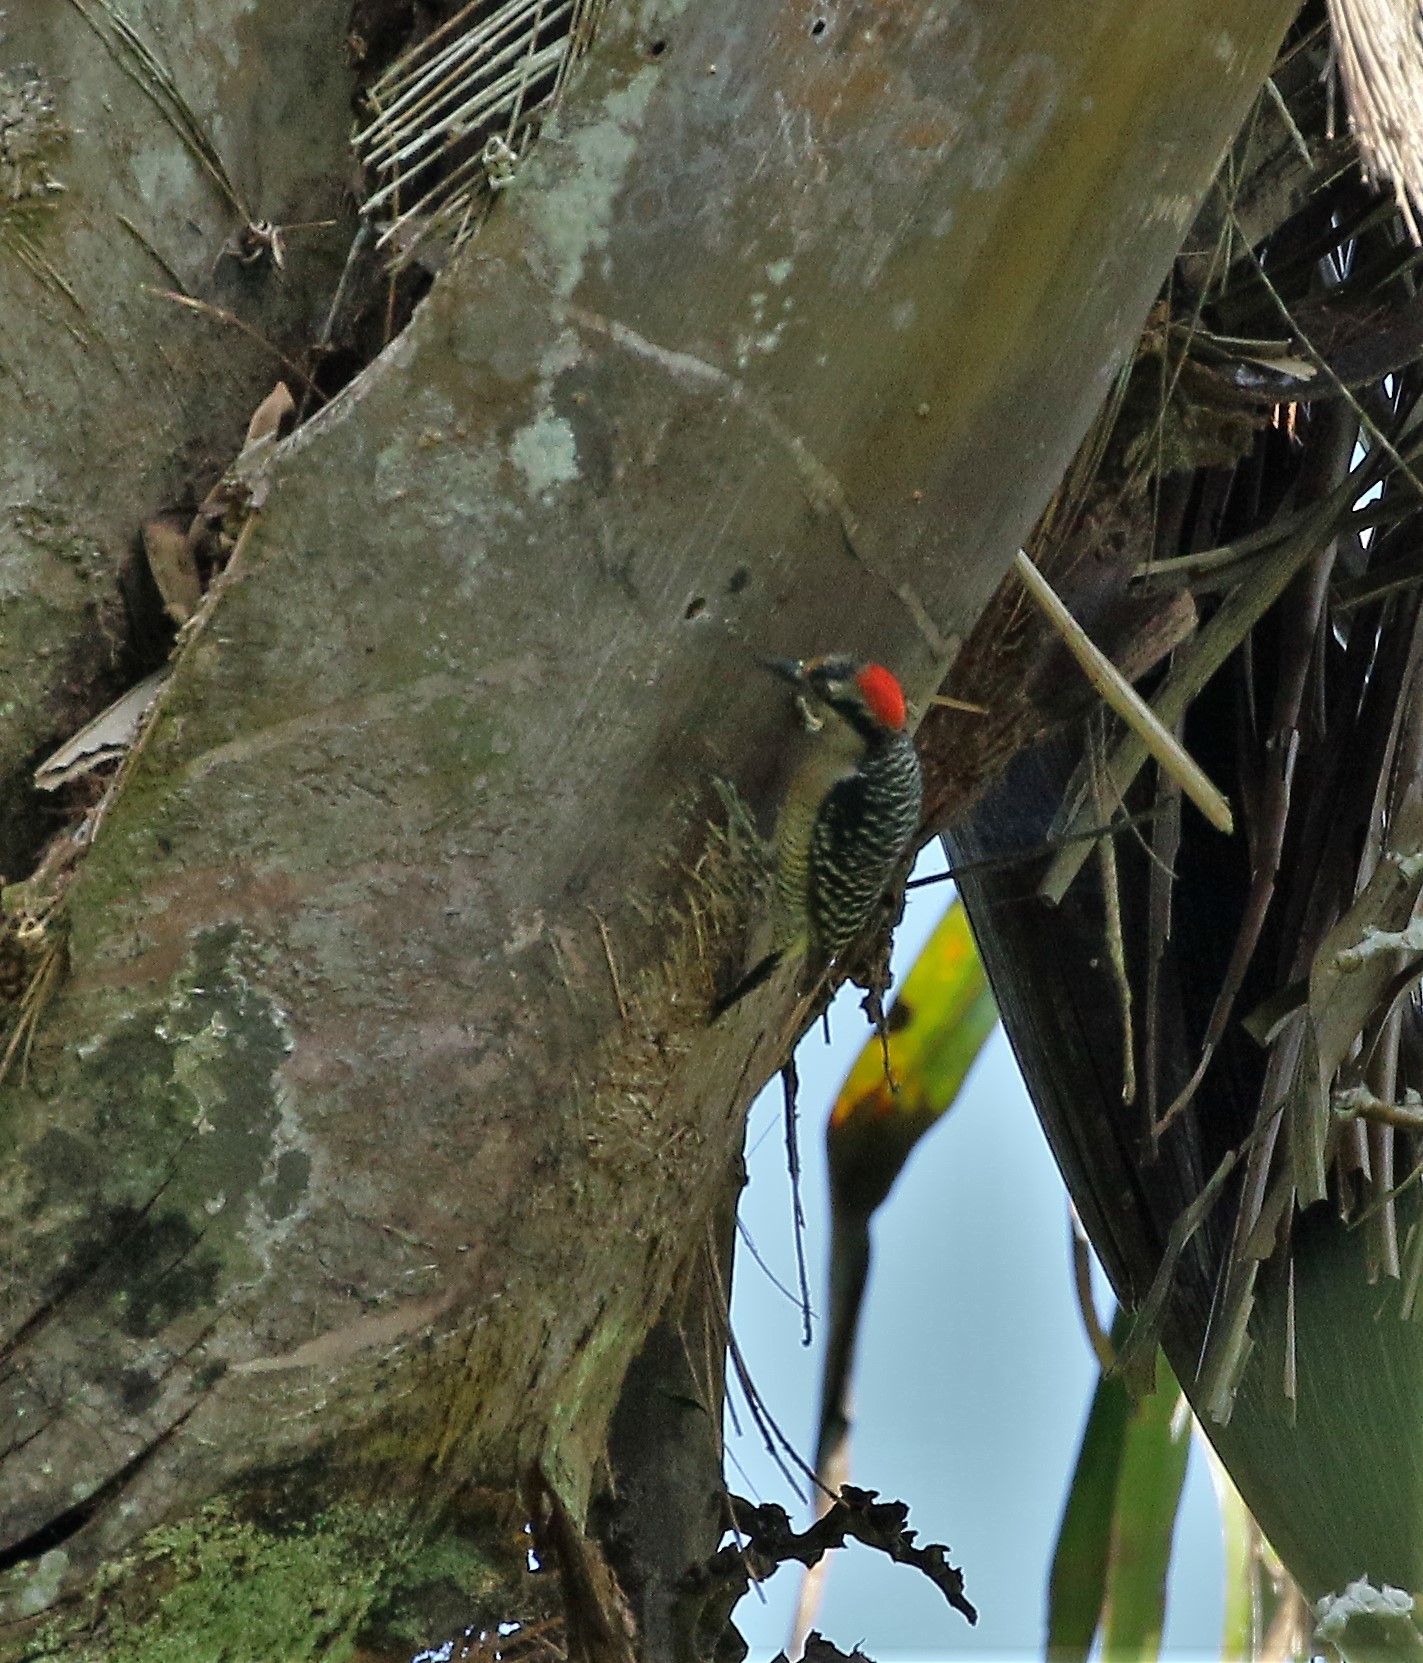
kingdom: Animalia
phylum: Chordata
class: Aves
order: Piciformes
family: Picidae
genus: Melanerpes
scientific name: Melanerpes pucherani
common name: Black-cheeked woodpecker
